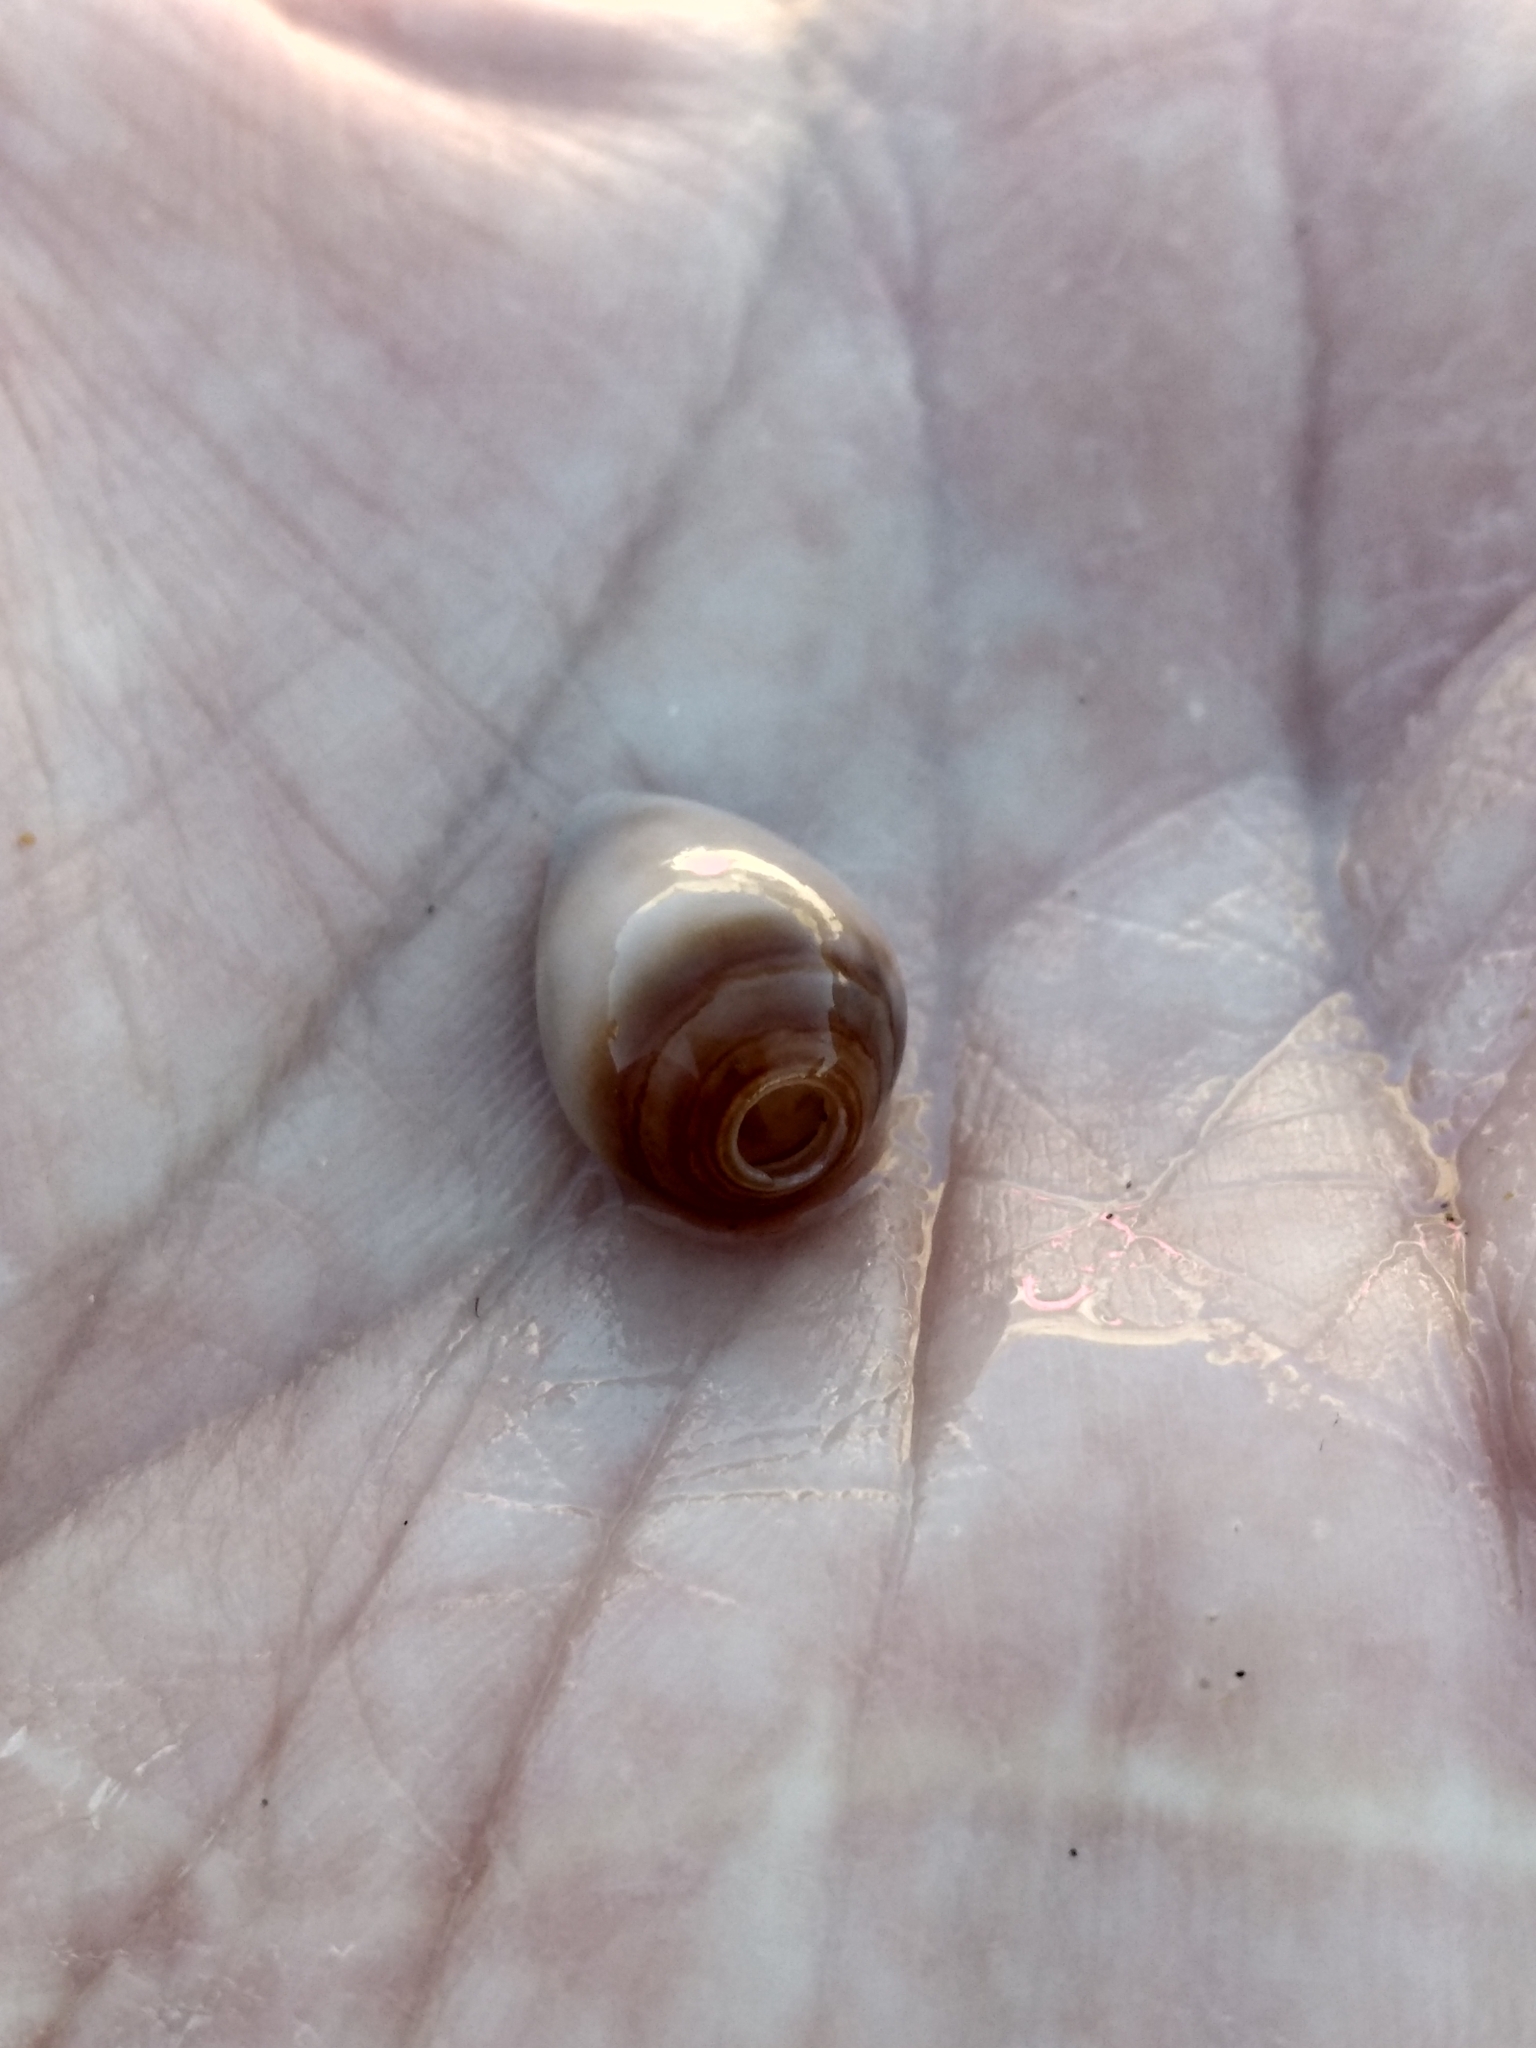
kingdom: Animalia
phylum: Mollusca
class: Gastropoda
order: Neogastropoda
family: Conidae
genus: Californiconus
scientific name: Californiconus californicus
